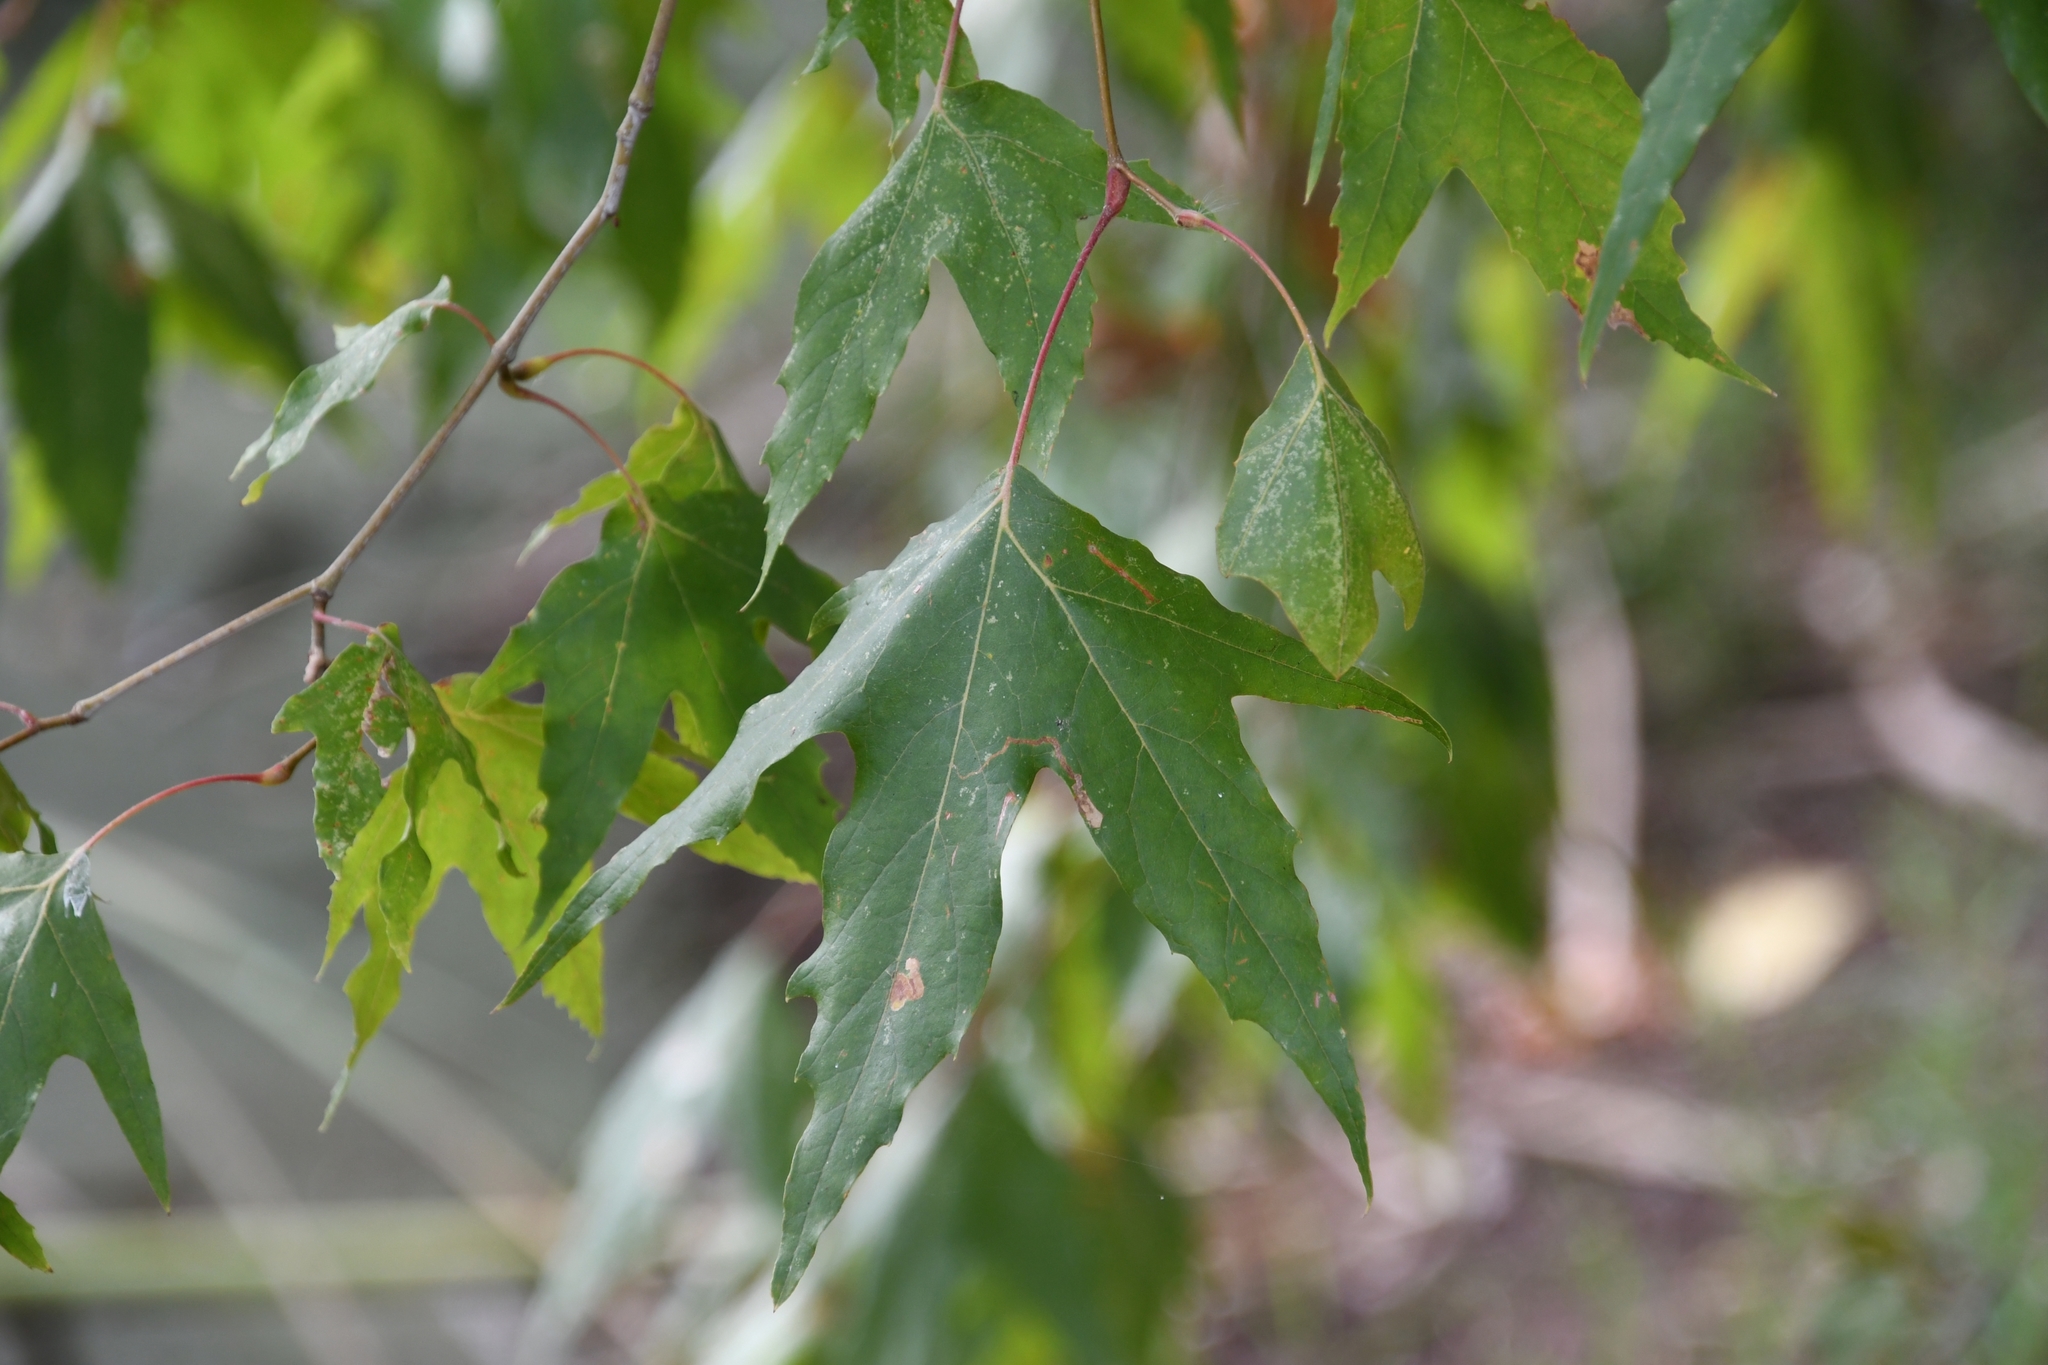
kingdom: Plantae
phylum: Tracheophyta
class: Magnoliopsida
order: Proteales
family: Platanaceae
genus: Platanus
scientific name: Platanus wrightii
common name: Arizona sycamore
